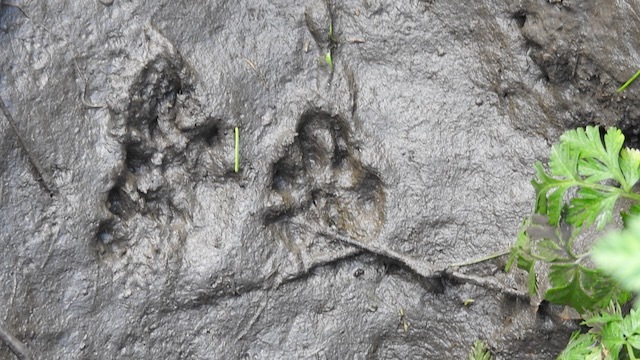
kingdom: Animalia
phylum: Chordata
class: Mammalia
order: Carnivora
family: Procyonidae
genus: Procyon
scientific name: Procyon lotor
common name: Raccoon
